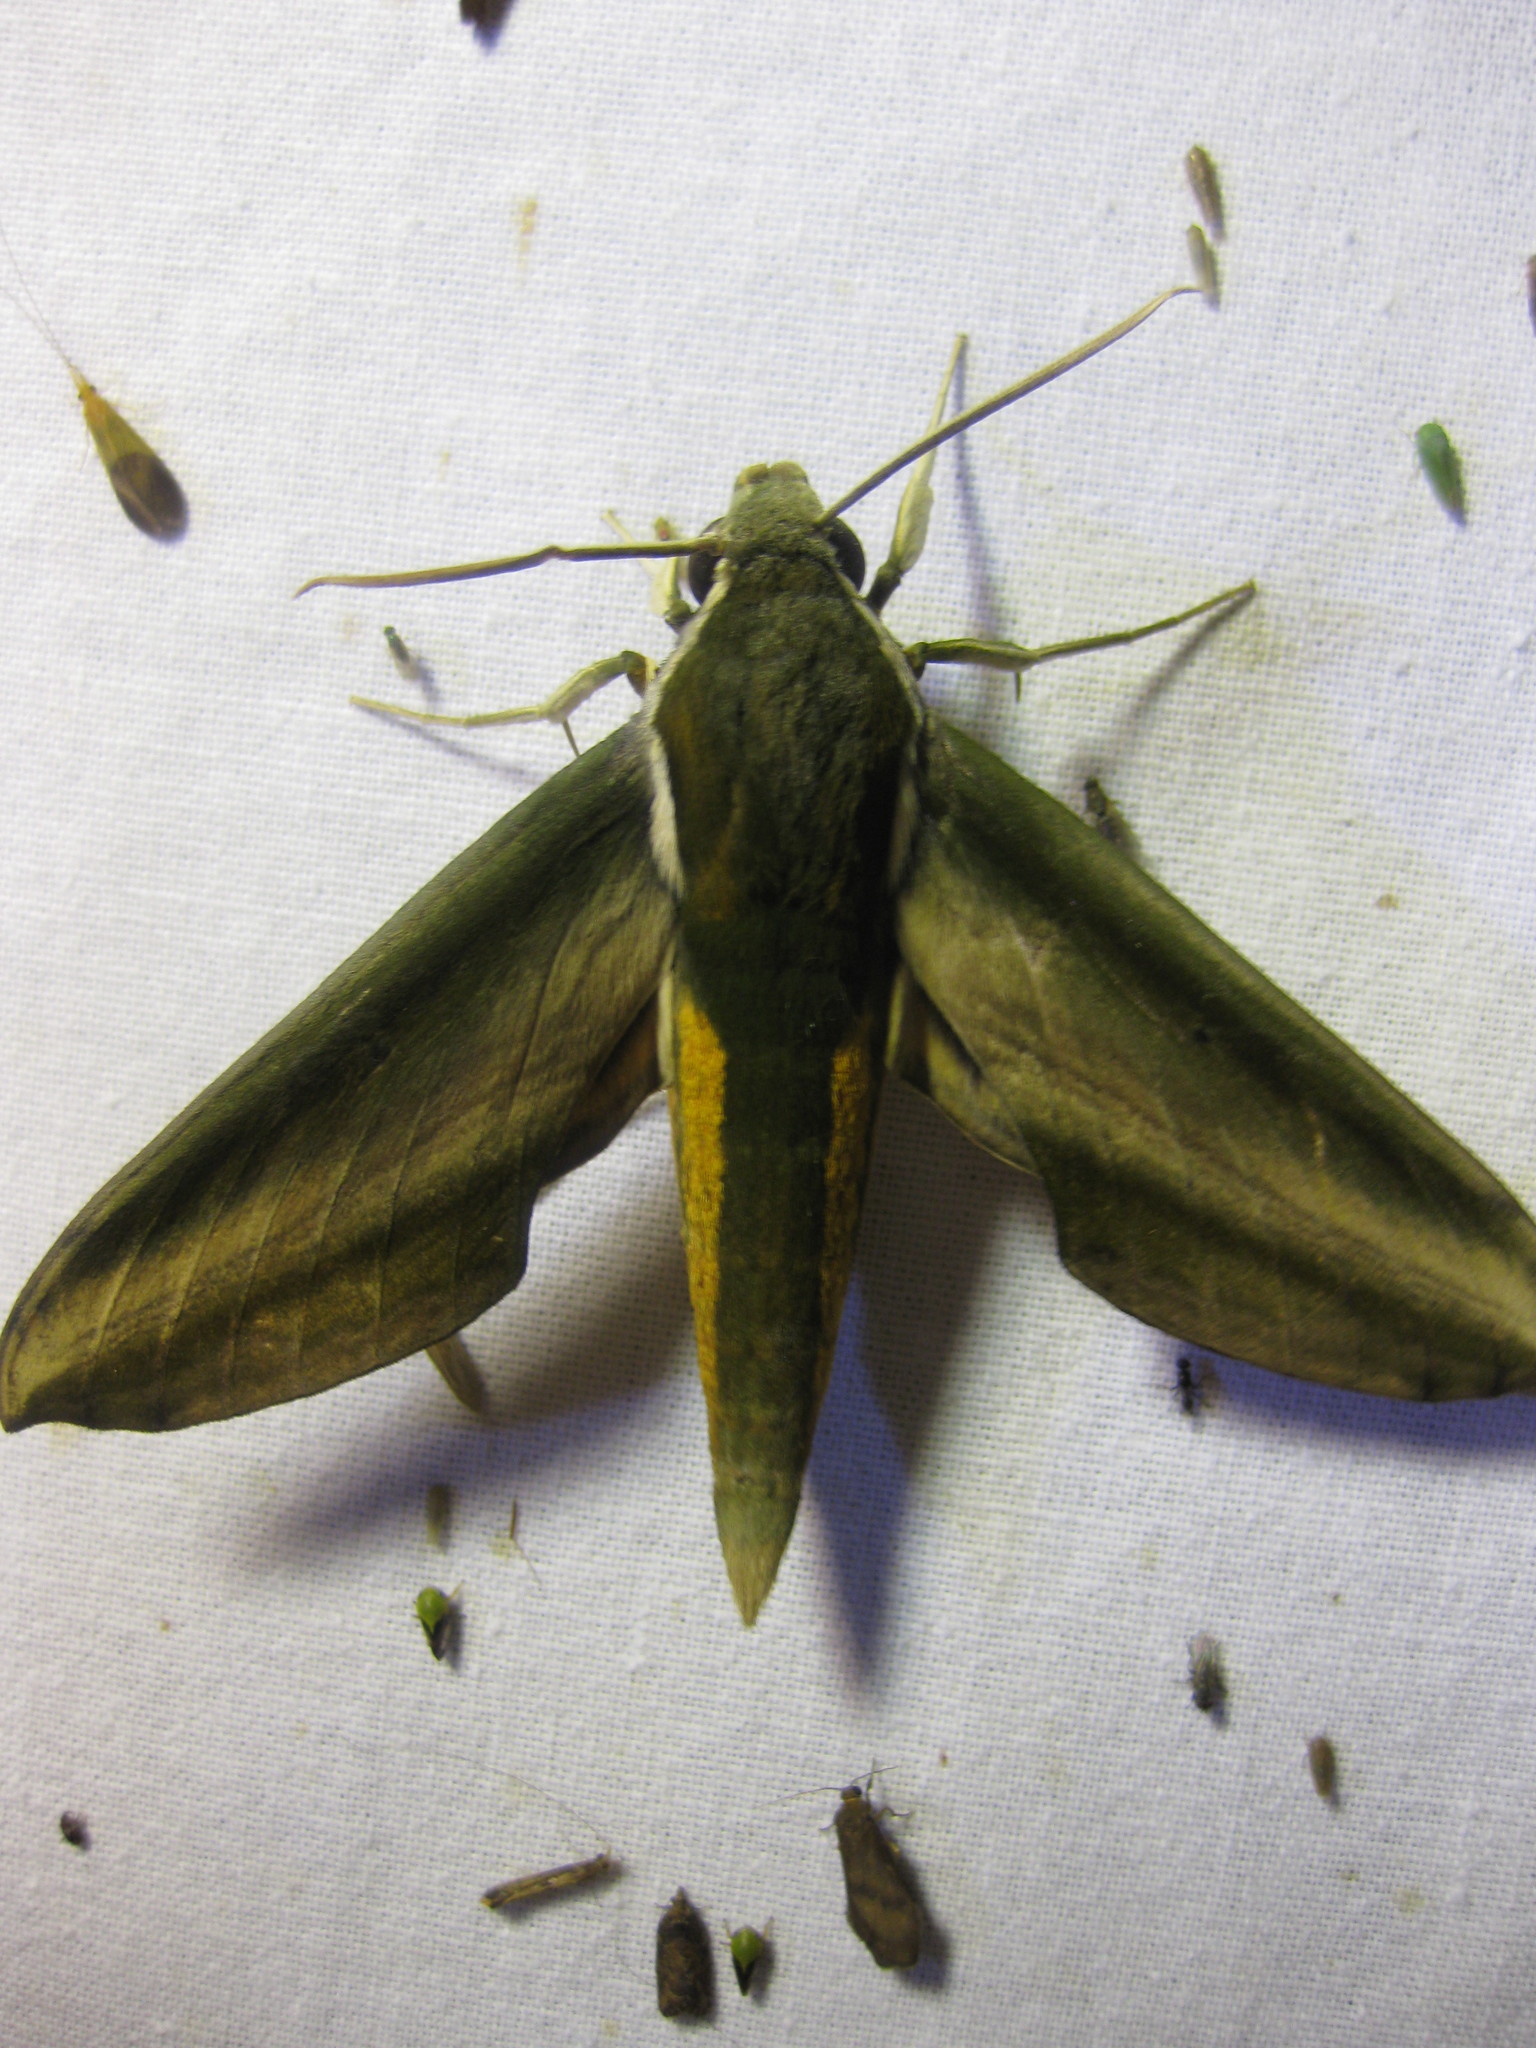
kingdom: Animalia
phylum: Arthropoda
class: Insecta
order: Lepidoptera
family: Sphingidae
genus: Theretra
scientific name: Theretra nessus
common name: Yam hawk moth
